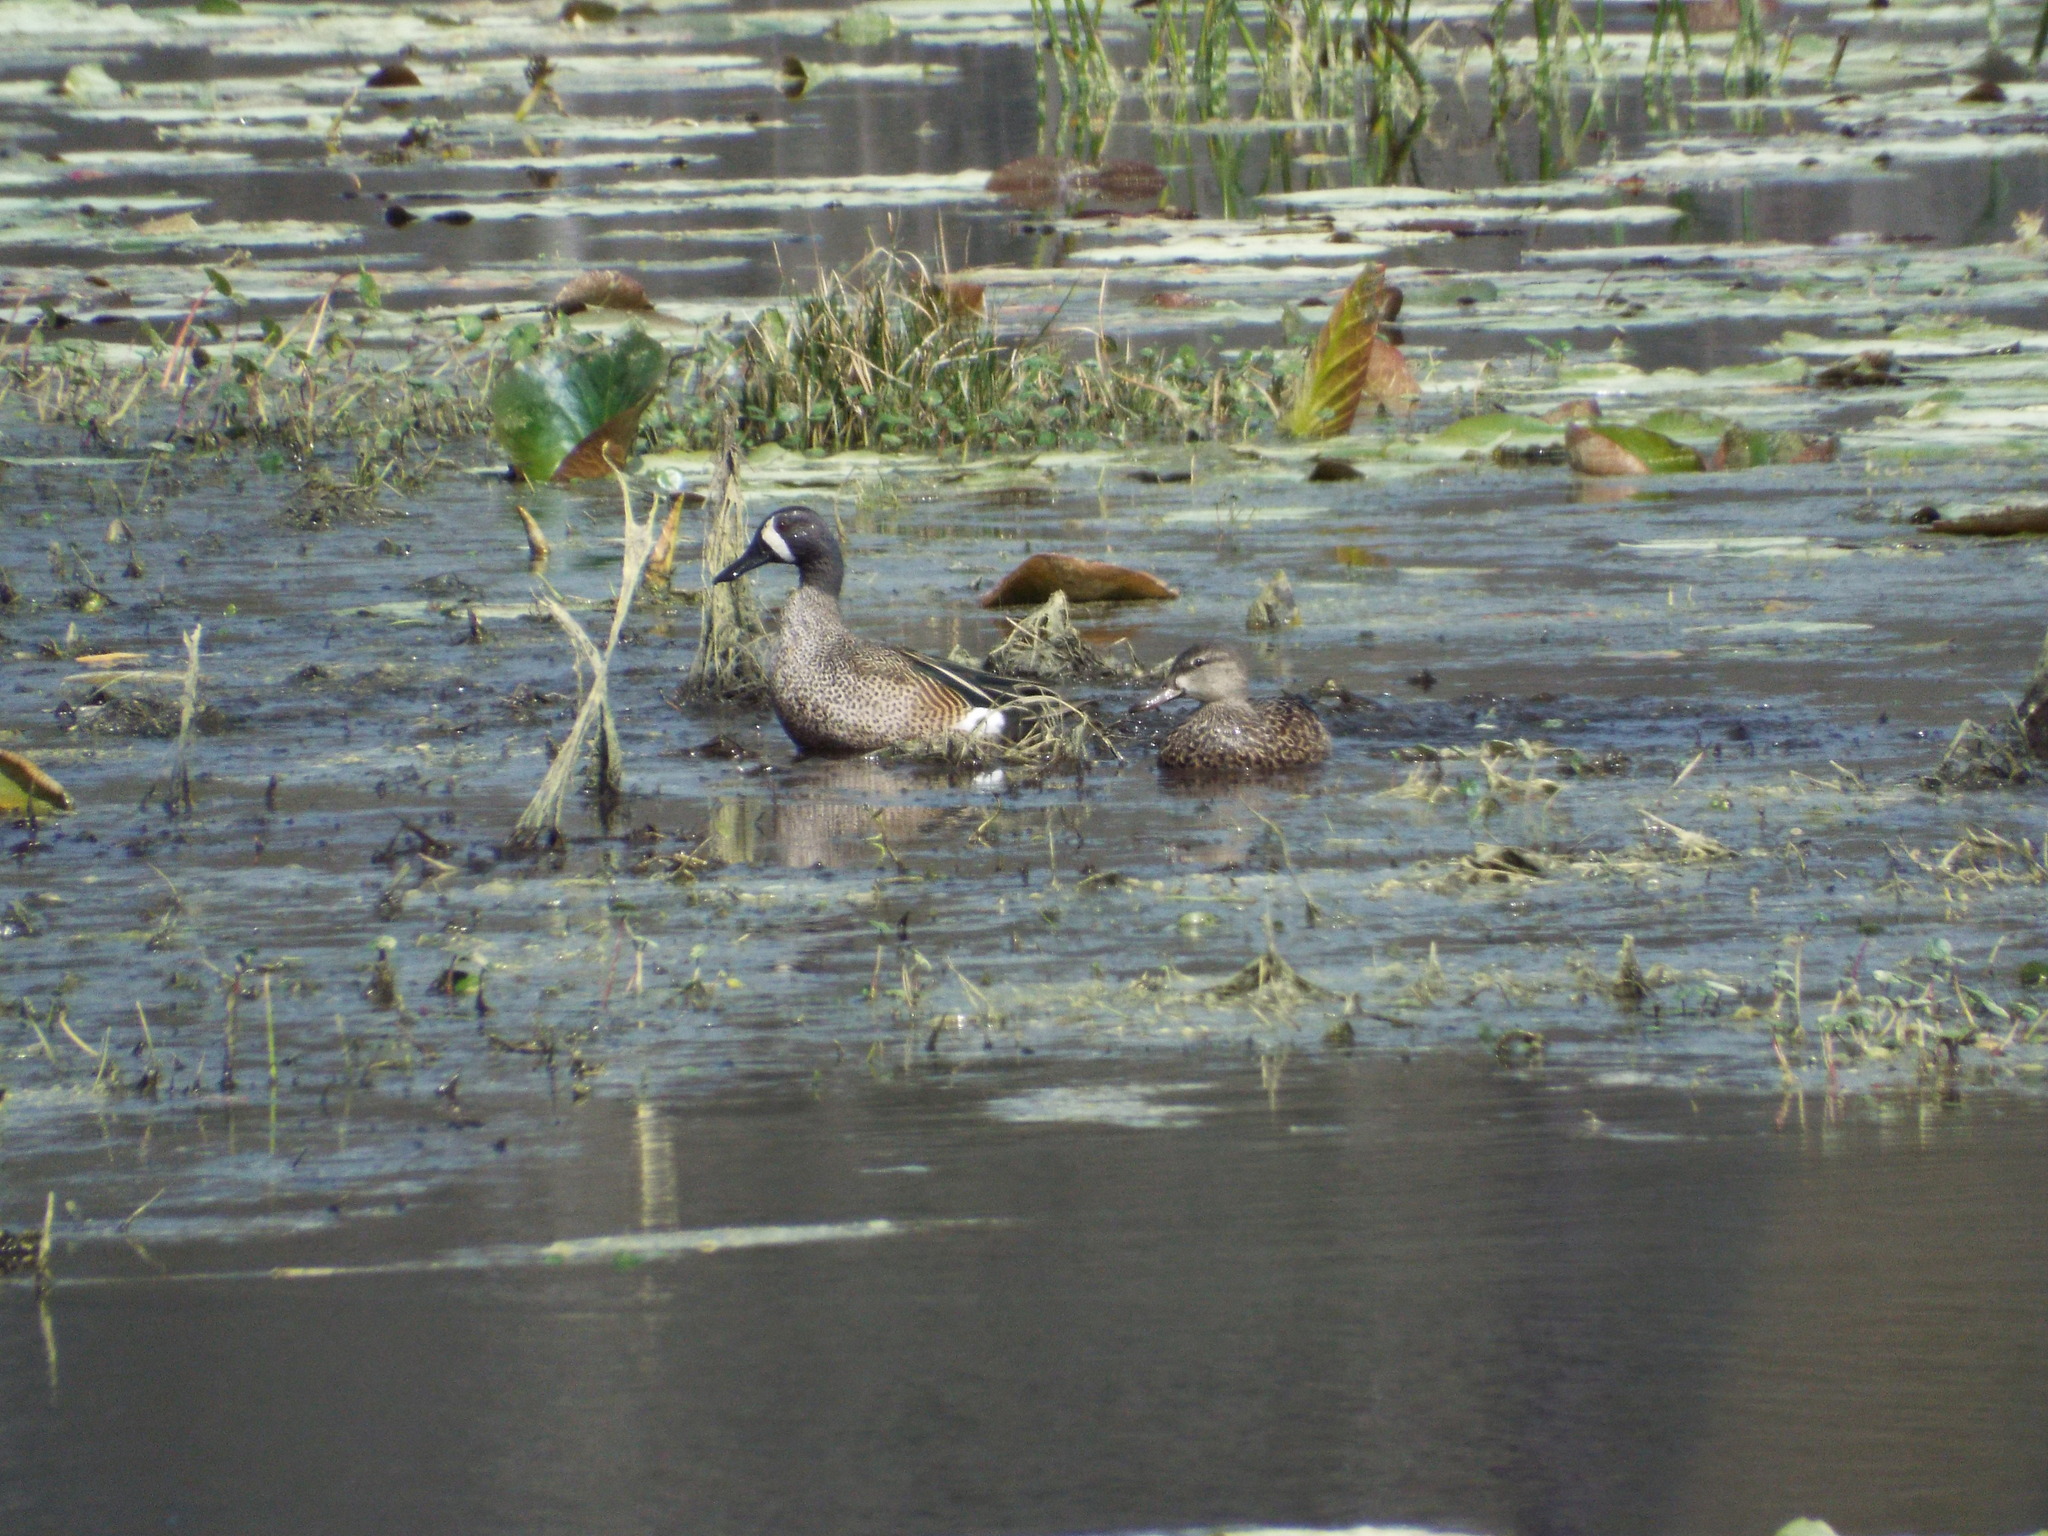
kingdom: Animalia
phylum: Chordata
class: Aves
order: Anseriformes
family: Anatidae
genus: Spatula
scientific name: Spatula discors
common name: Blue-winged teal
